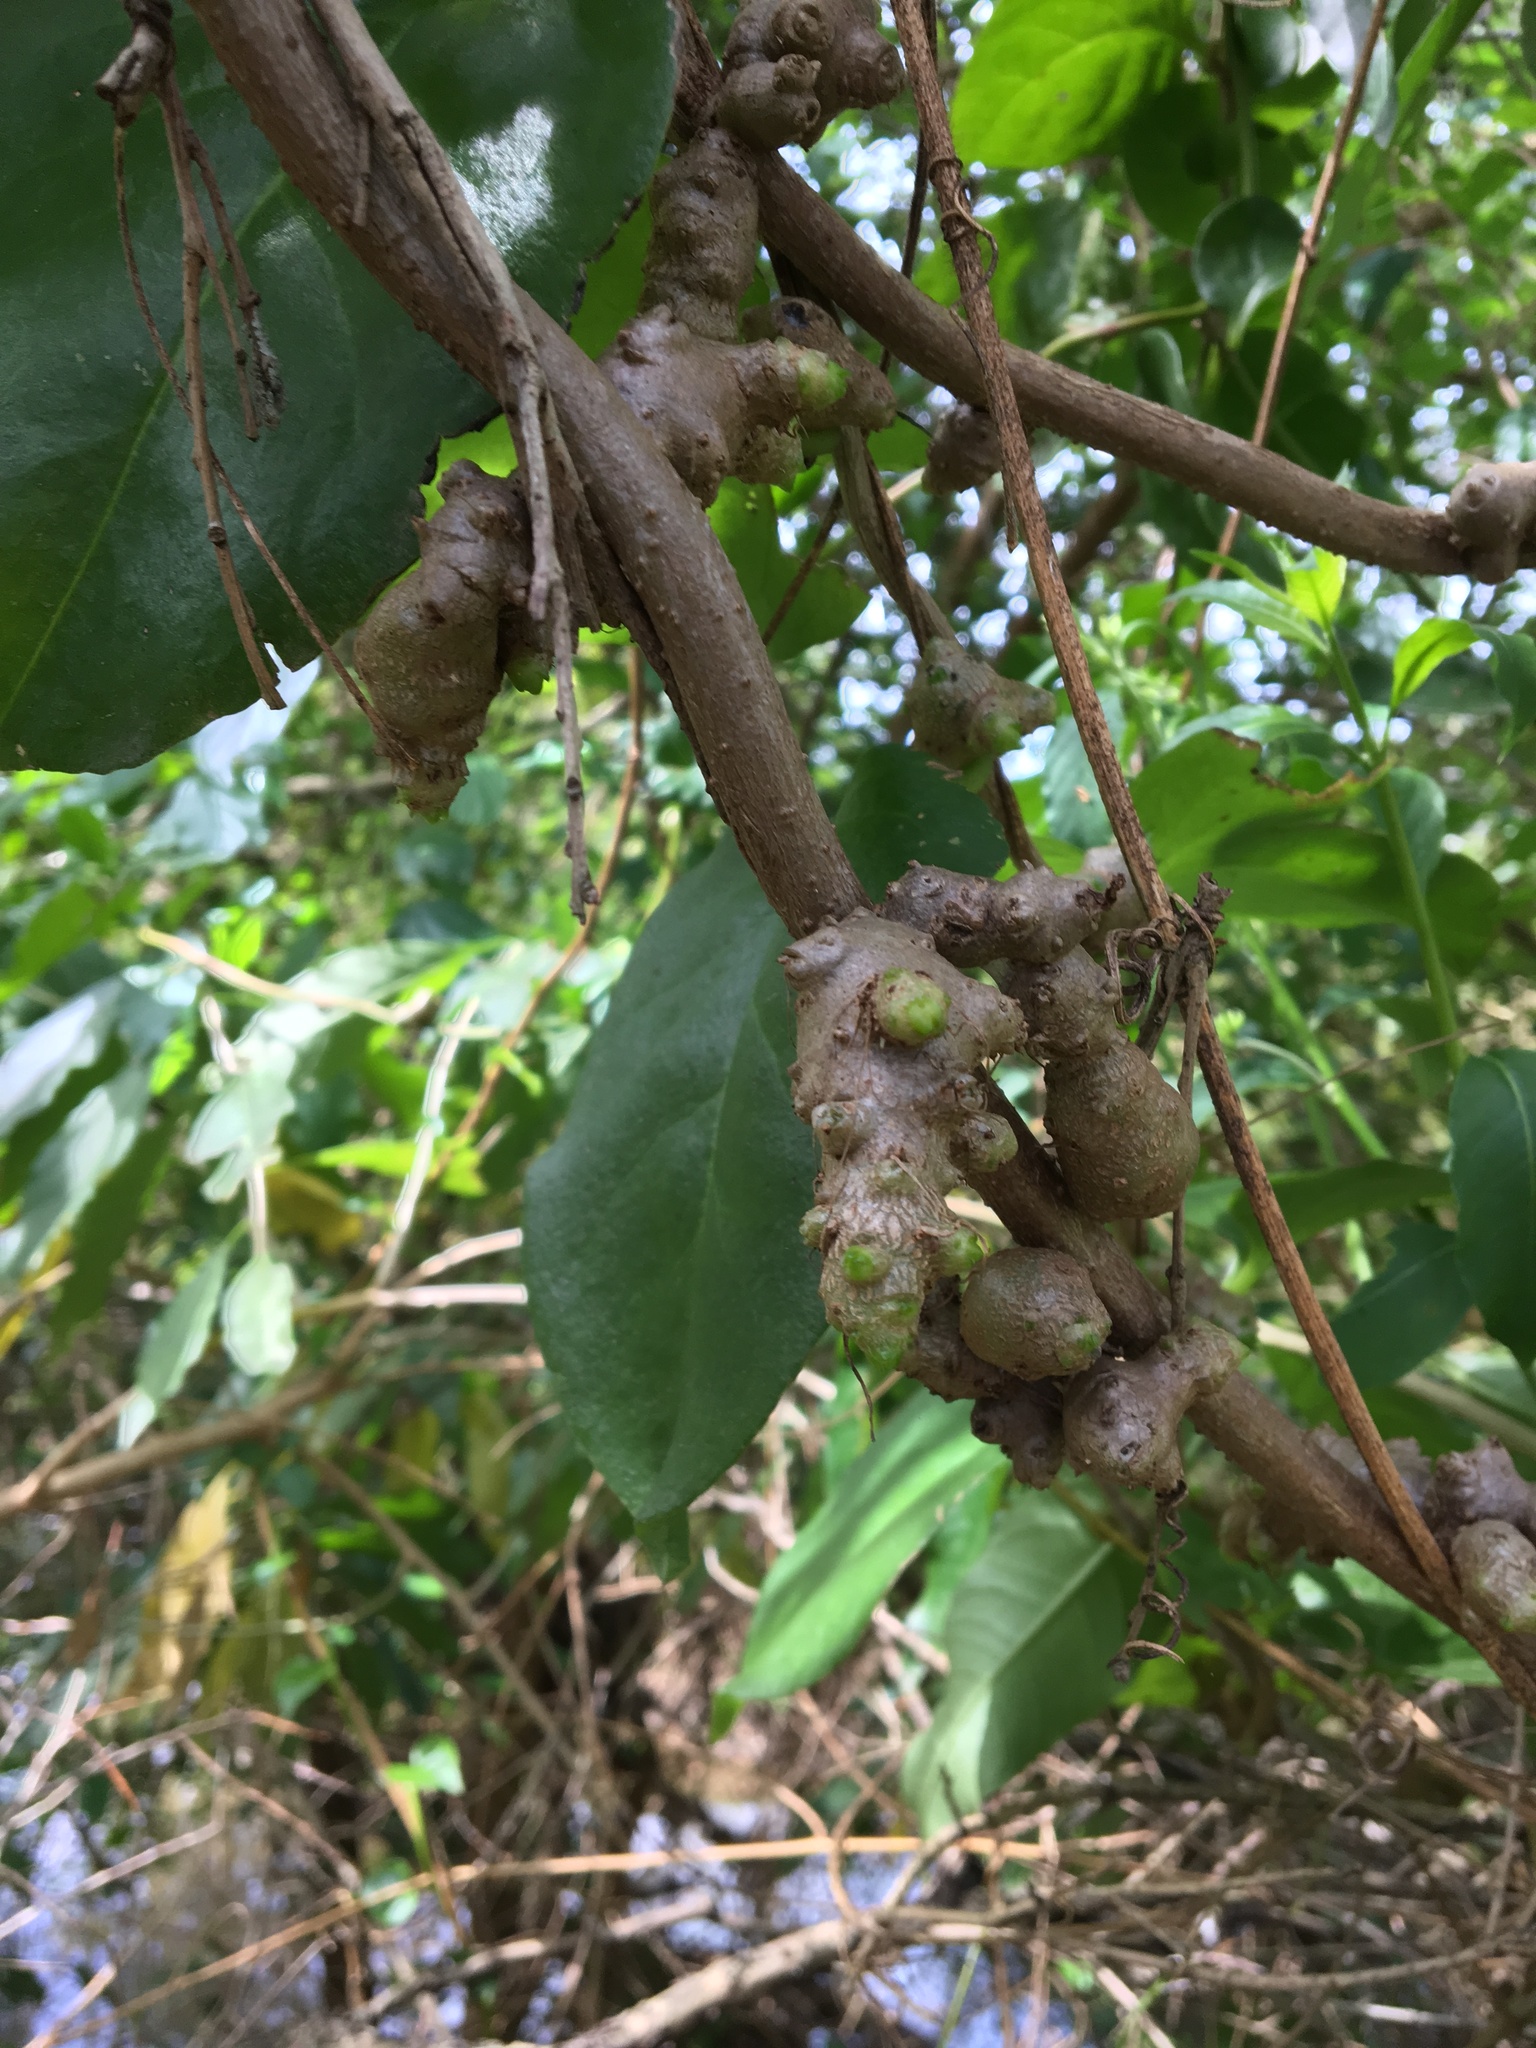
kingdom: Plantae
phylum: Tracheophyta
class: Magnoliopsida
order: Caryophyllales
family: Basellaceae
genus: Anredera
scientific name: Anredera cordifolia
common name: Heartleaf madeiravine
